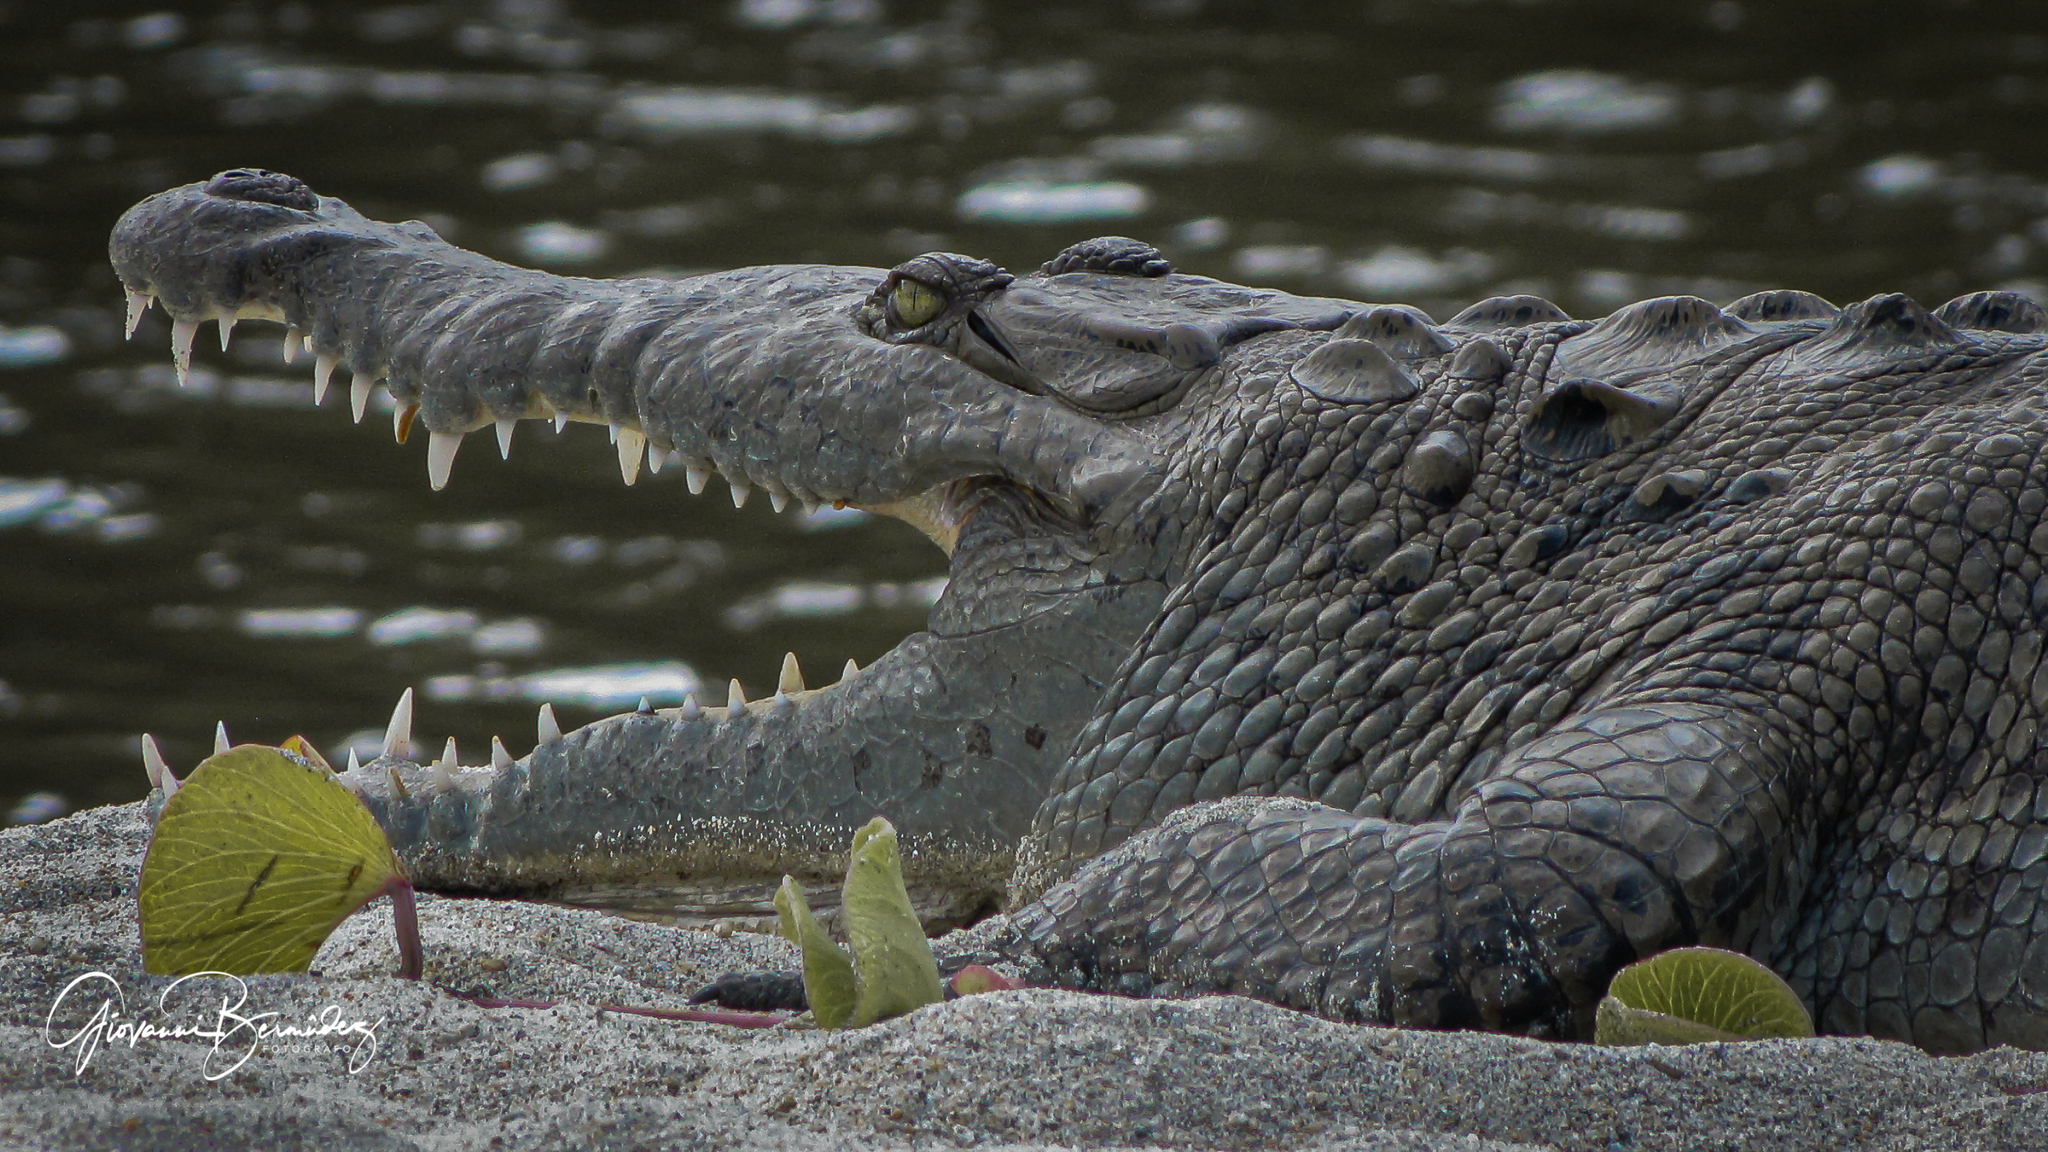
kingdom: Animalia
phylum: Chordata
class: Crocodylia
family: Crocodylidae
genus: Crocodylus
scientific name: Crocodylus acutus
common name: American crocodile
